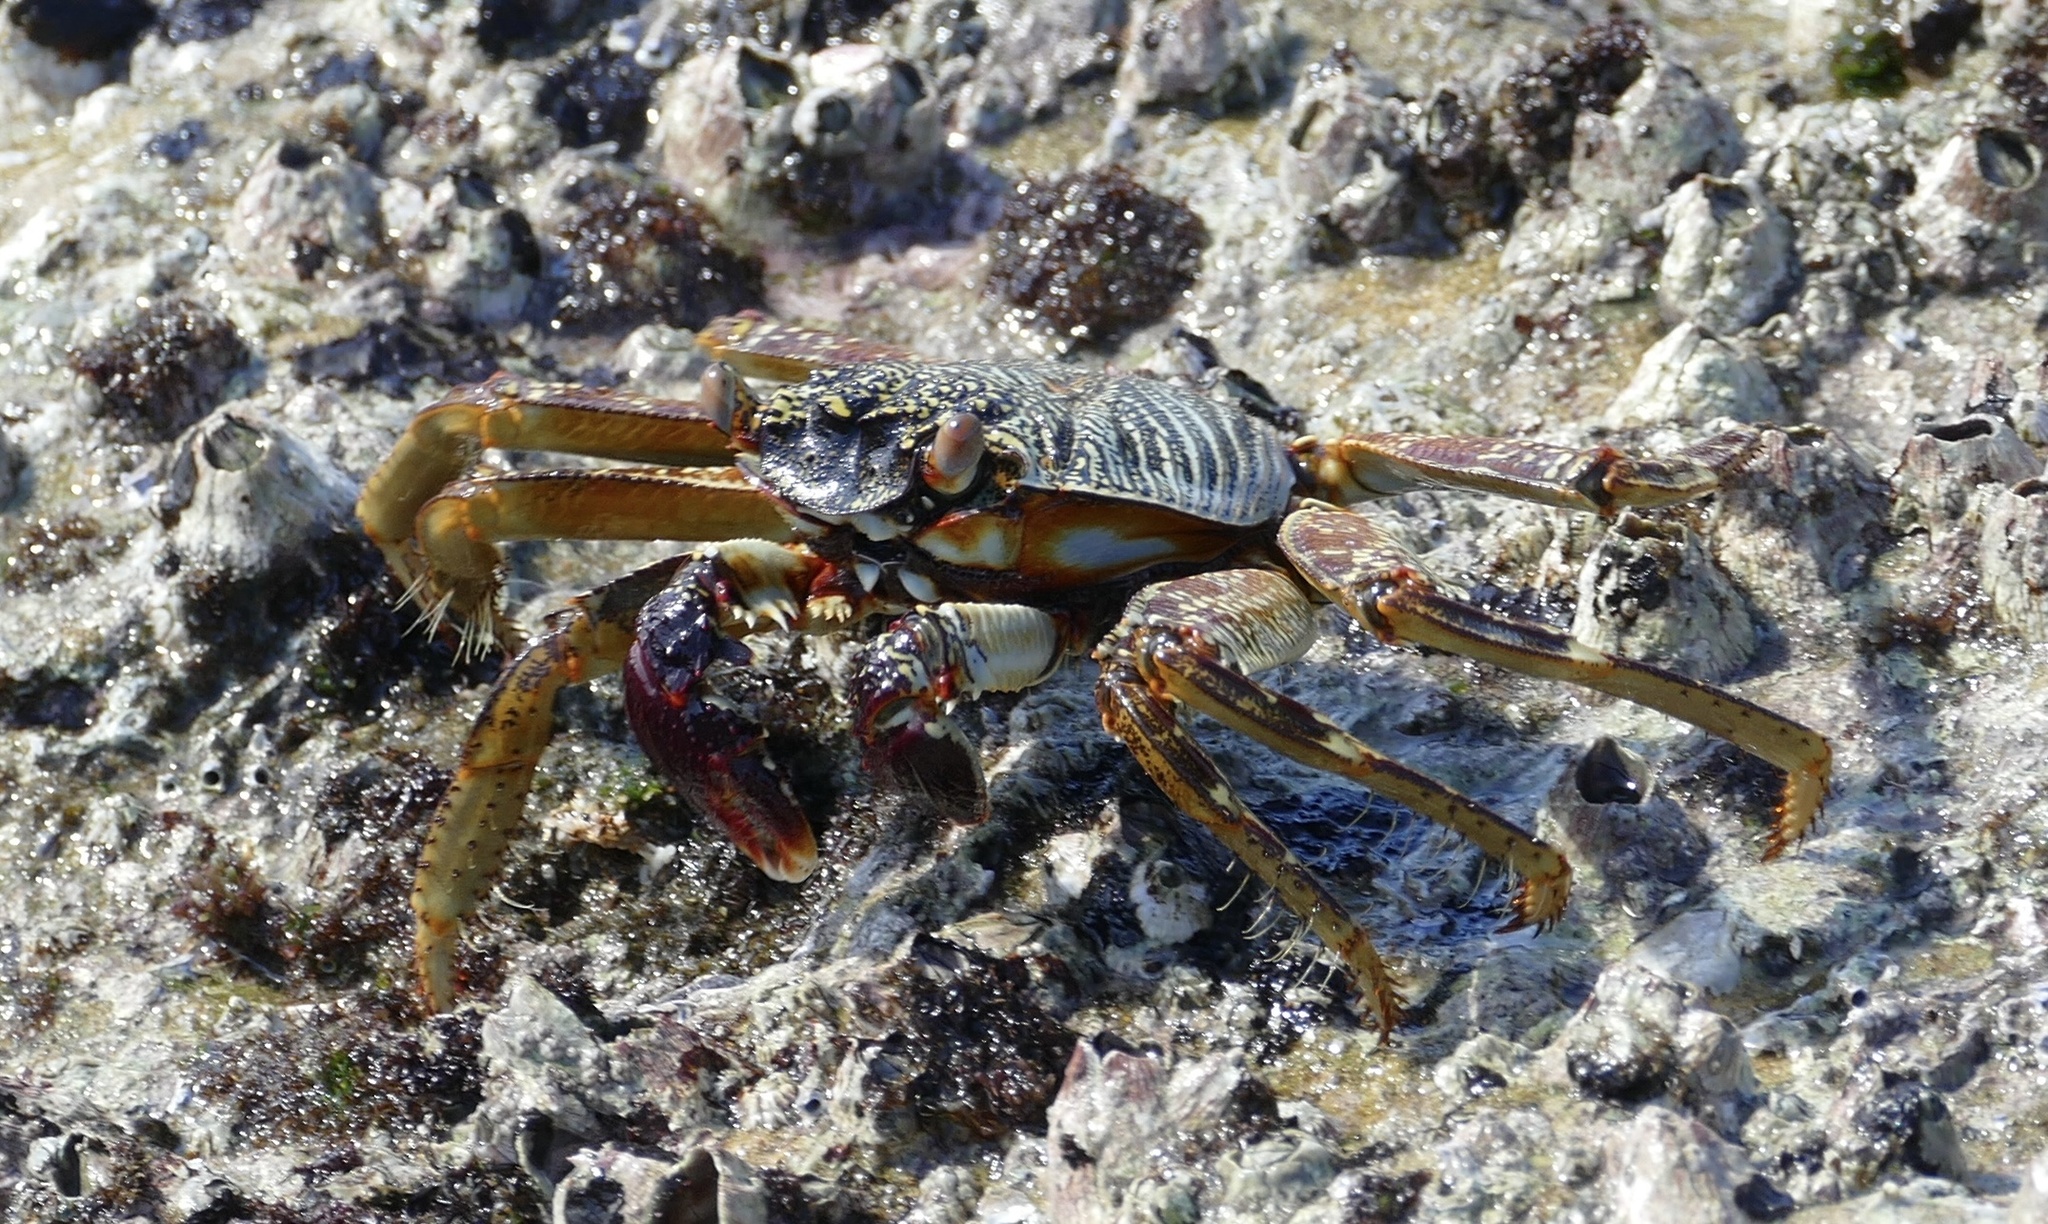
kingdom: Animalia
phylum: Arthropoda
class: Malacostraca
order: Decapoda
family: Grapsidae
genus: Grapsus
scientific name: Grapsus tenuicrustatus
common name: Natal lightfoot crab
